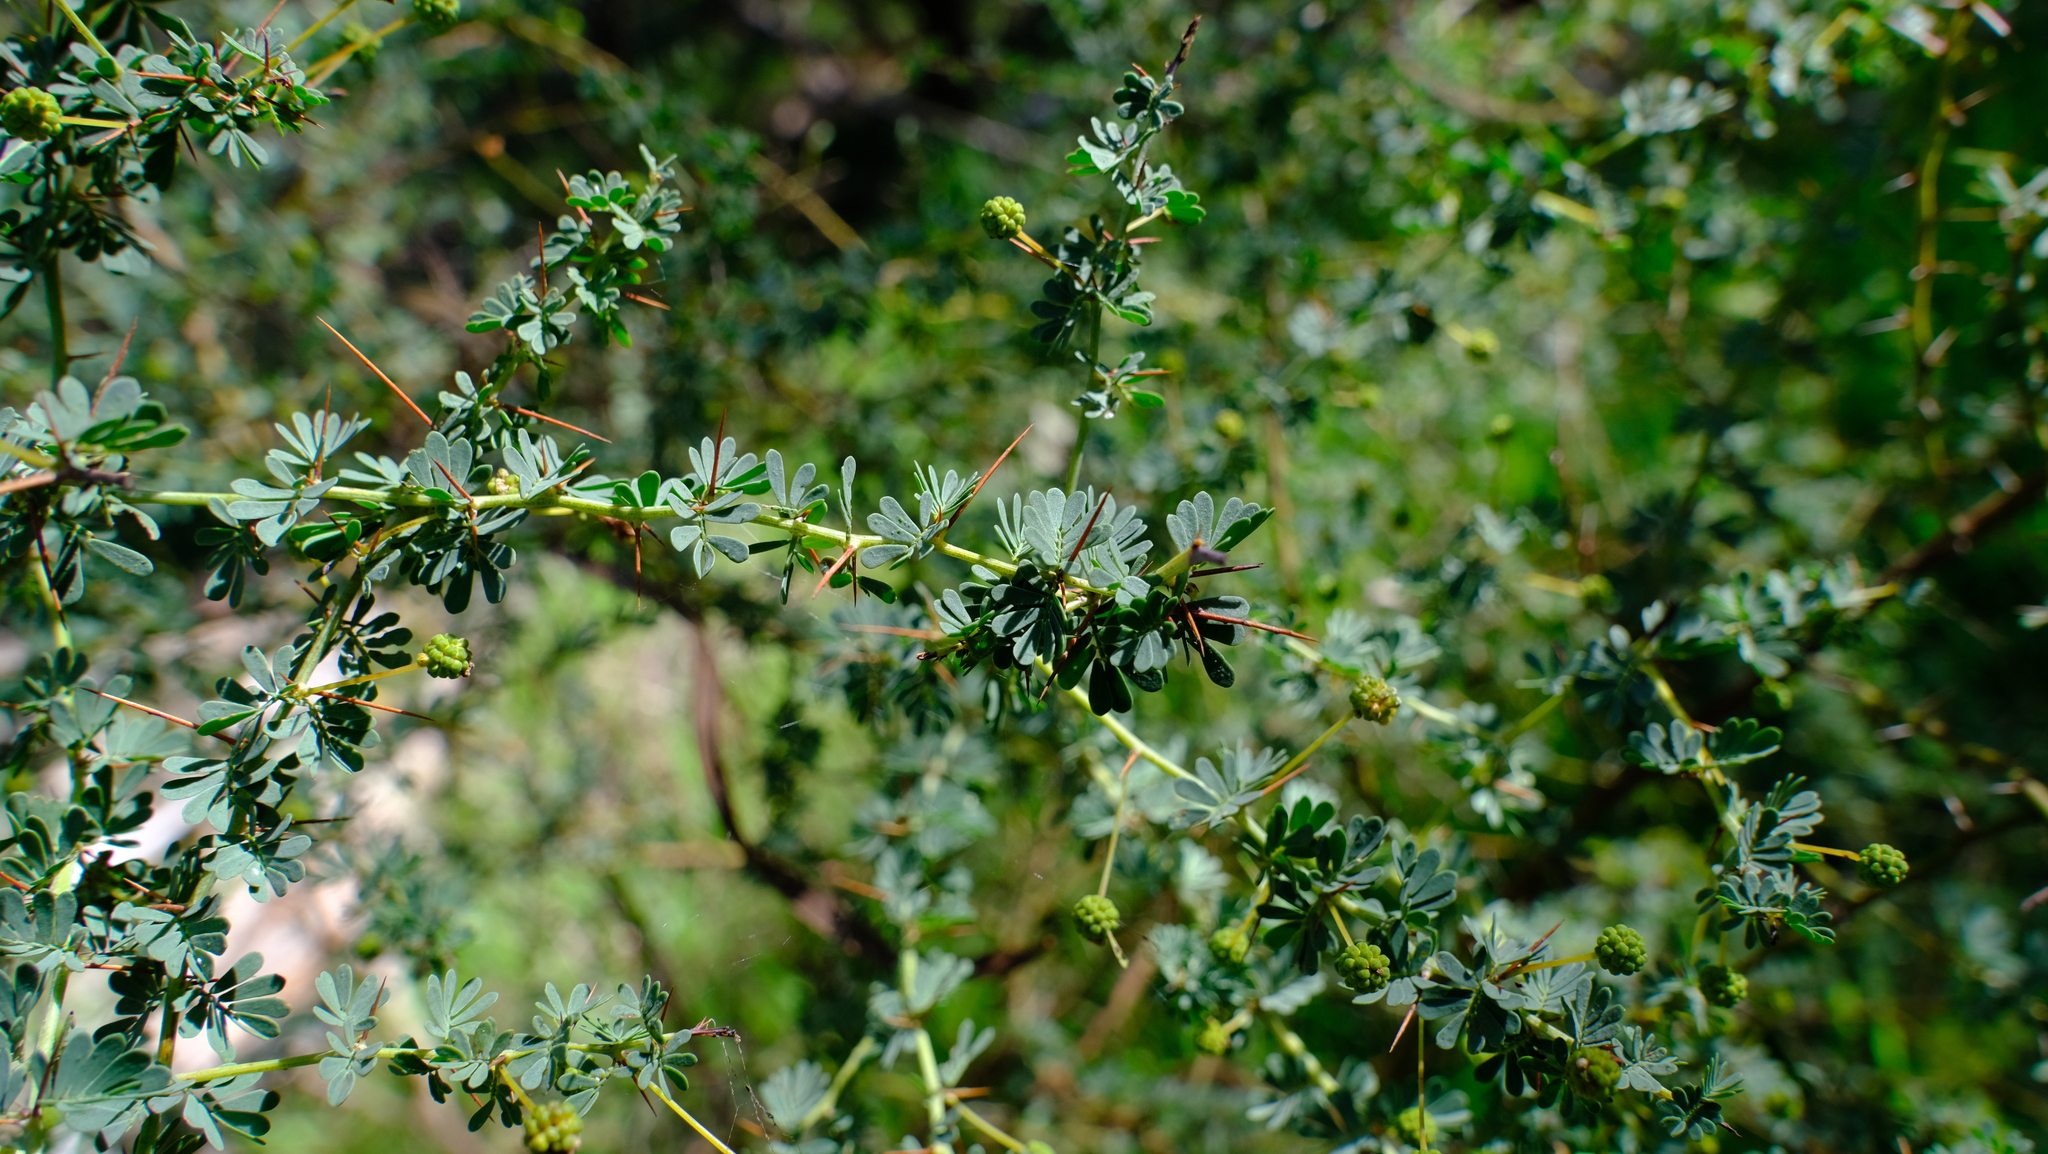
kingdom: Plantae
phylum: Tracheophyta
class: Magnoliopsida
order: Fabales
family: Fabaceae
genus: Acacia
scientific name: Acacia pulchella
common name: Prickly moses
